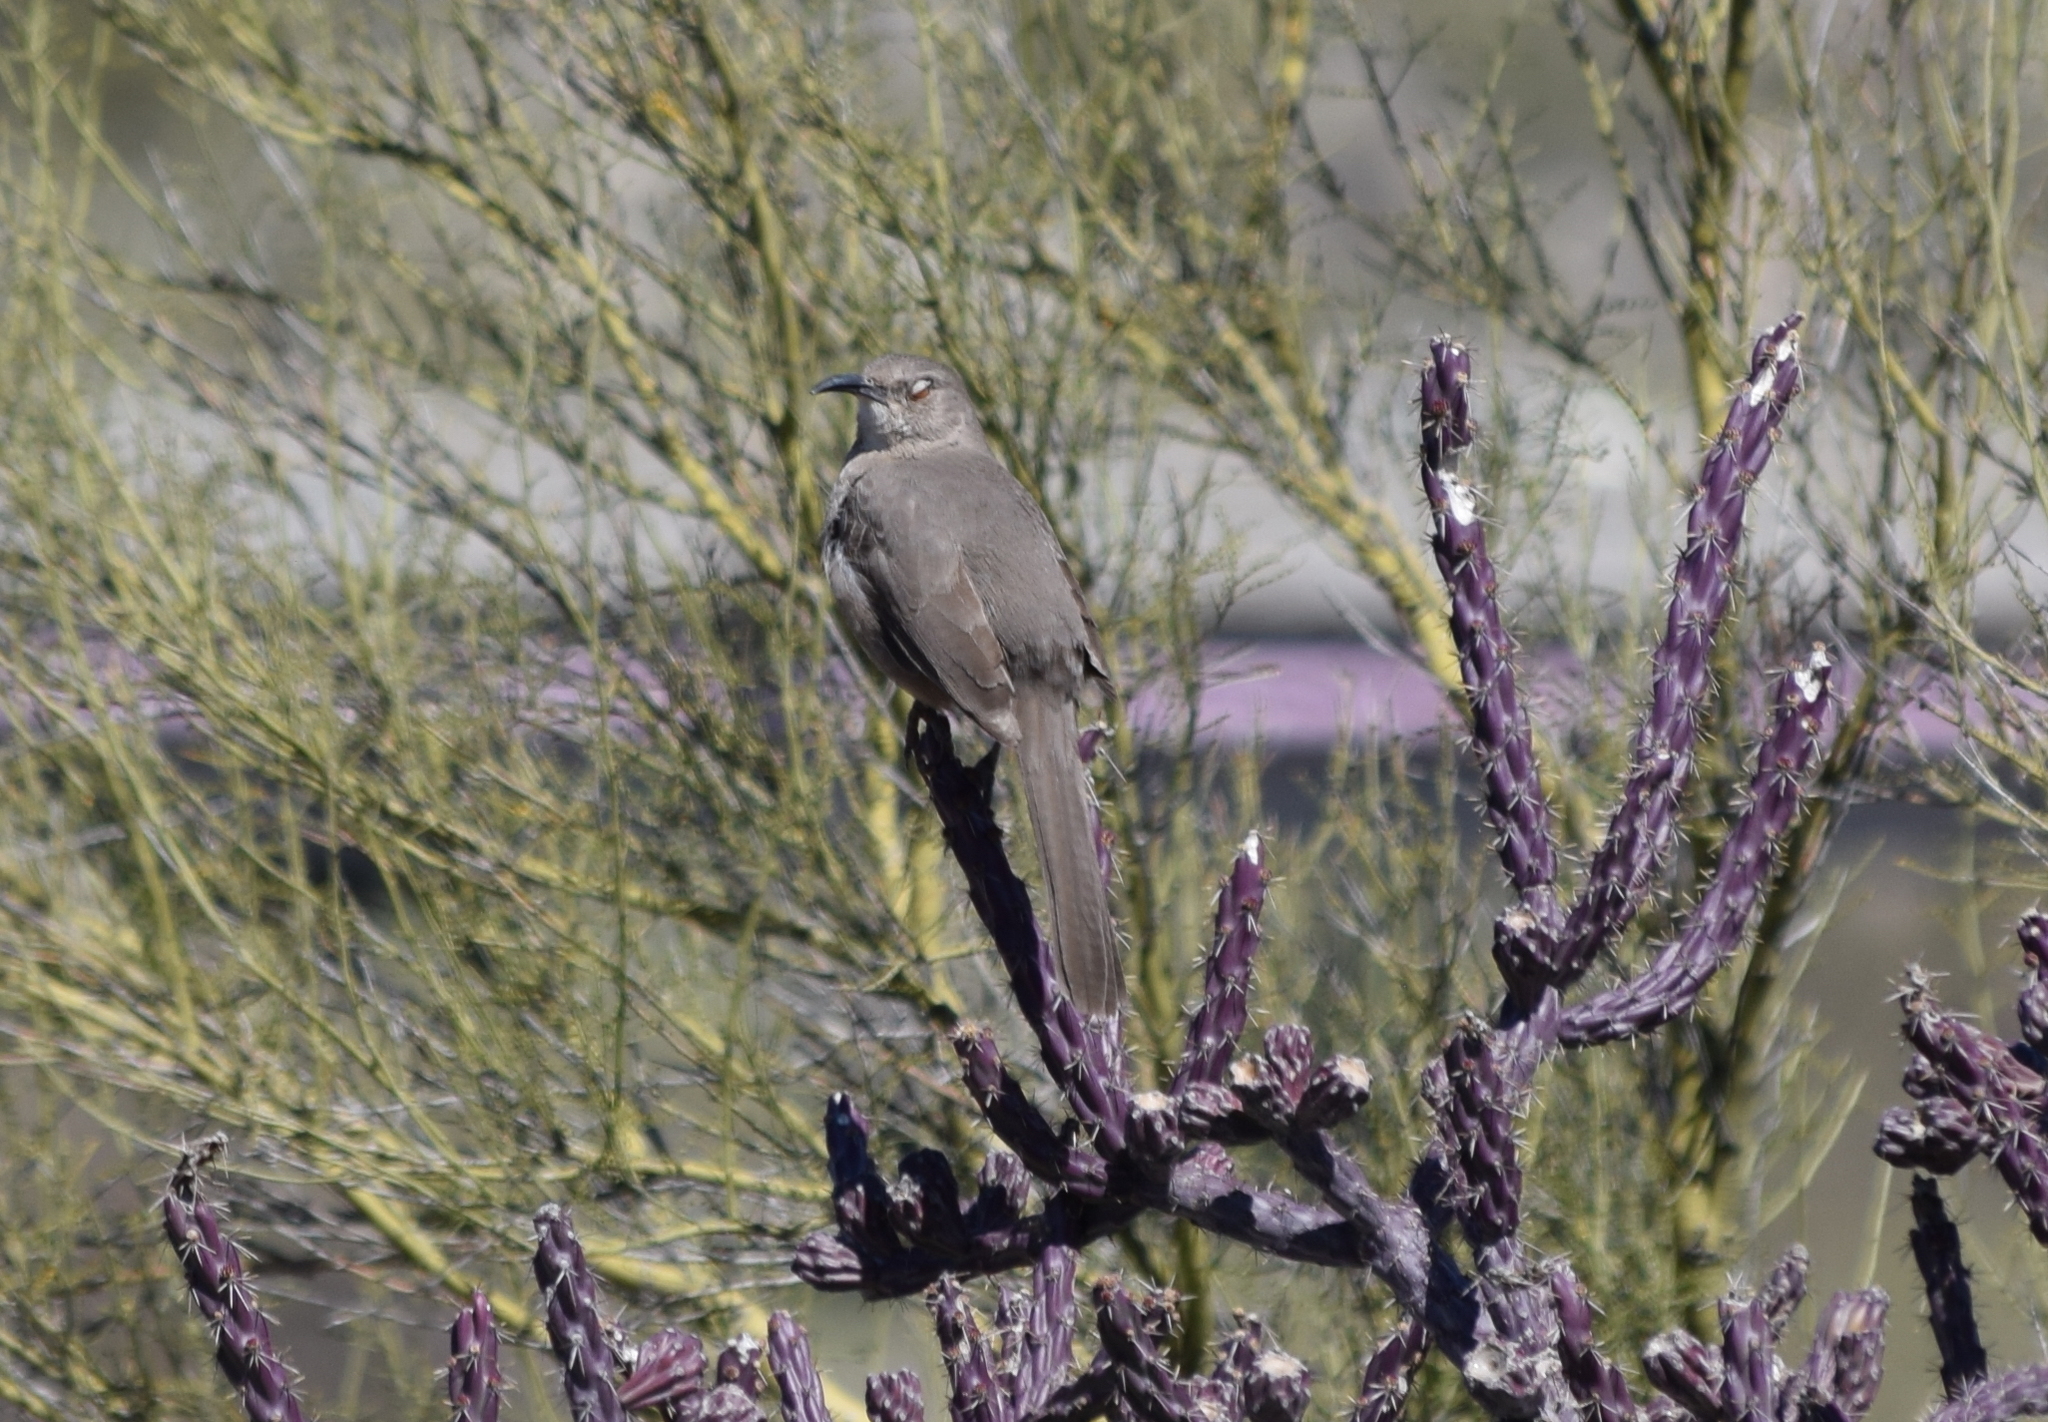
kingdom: Animalia
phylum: Chordata
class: Aves
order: Passeriformes
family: Mimidae
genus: Toxostoma
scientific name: Toxostoma curvirostre
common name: Curve-billed thrasher
